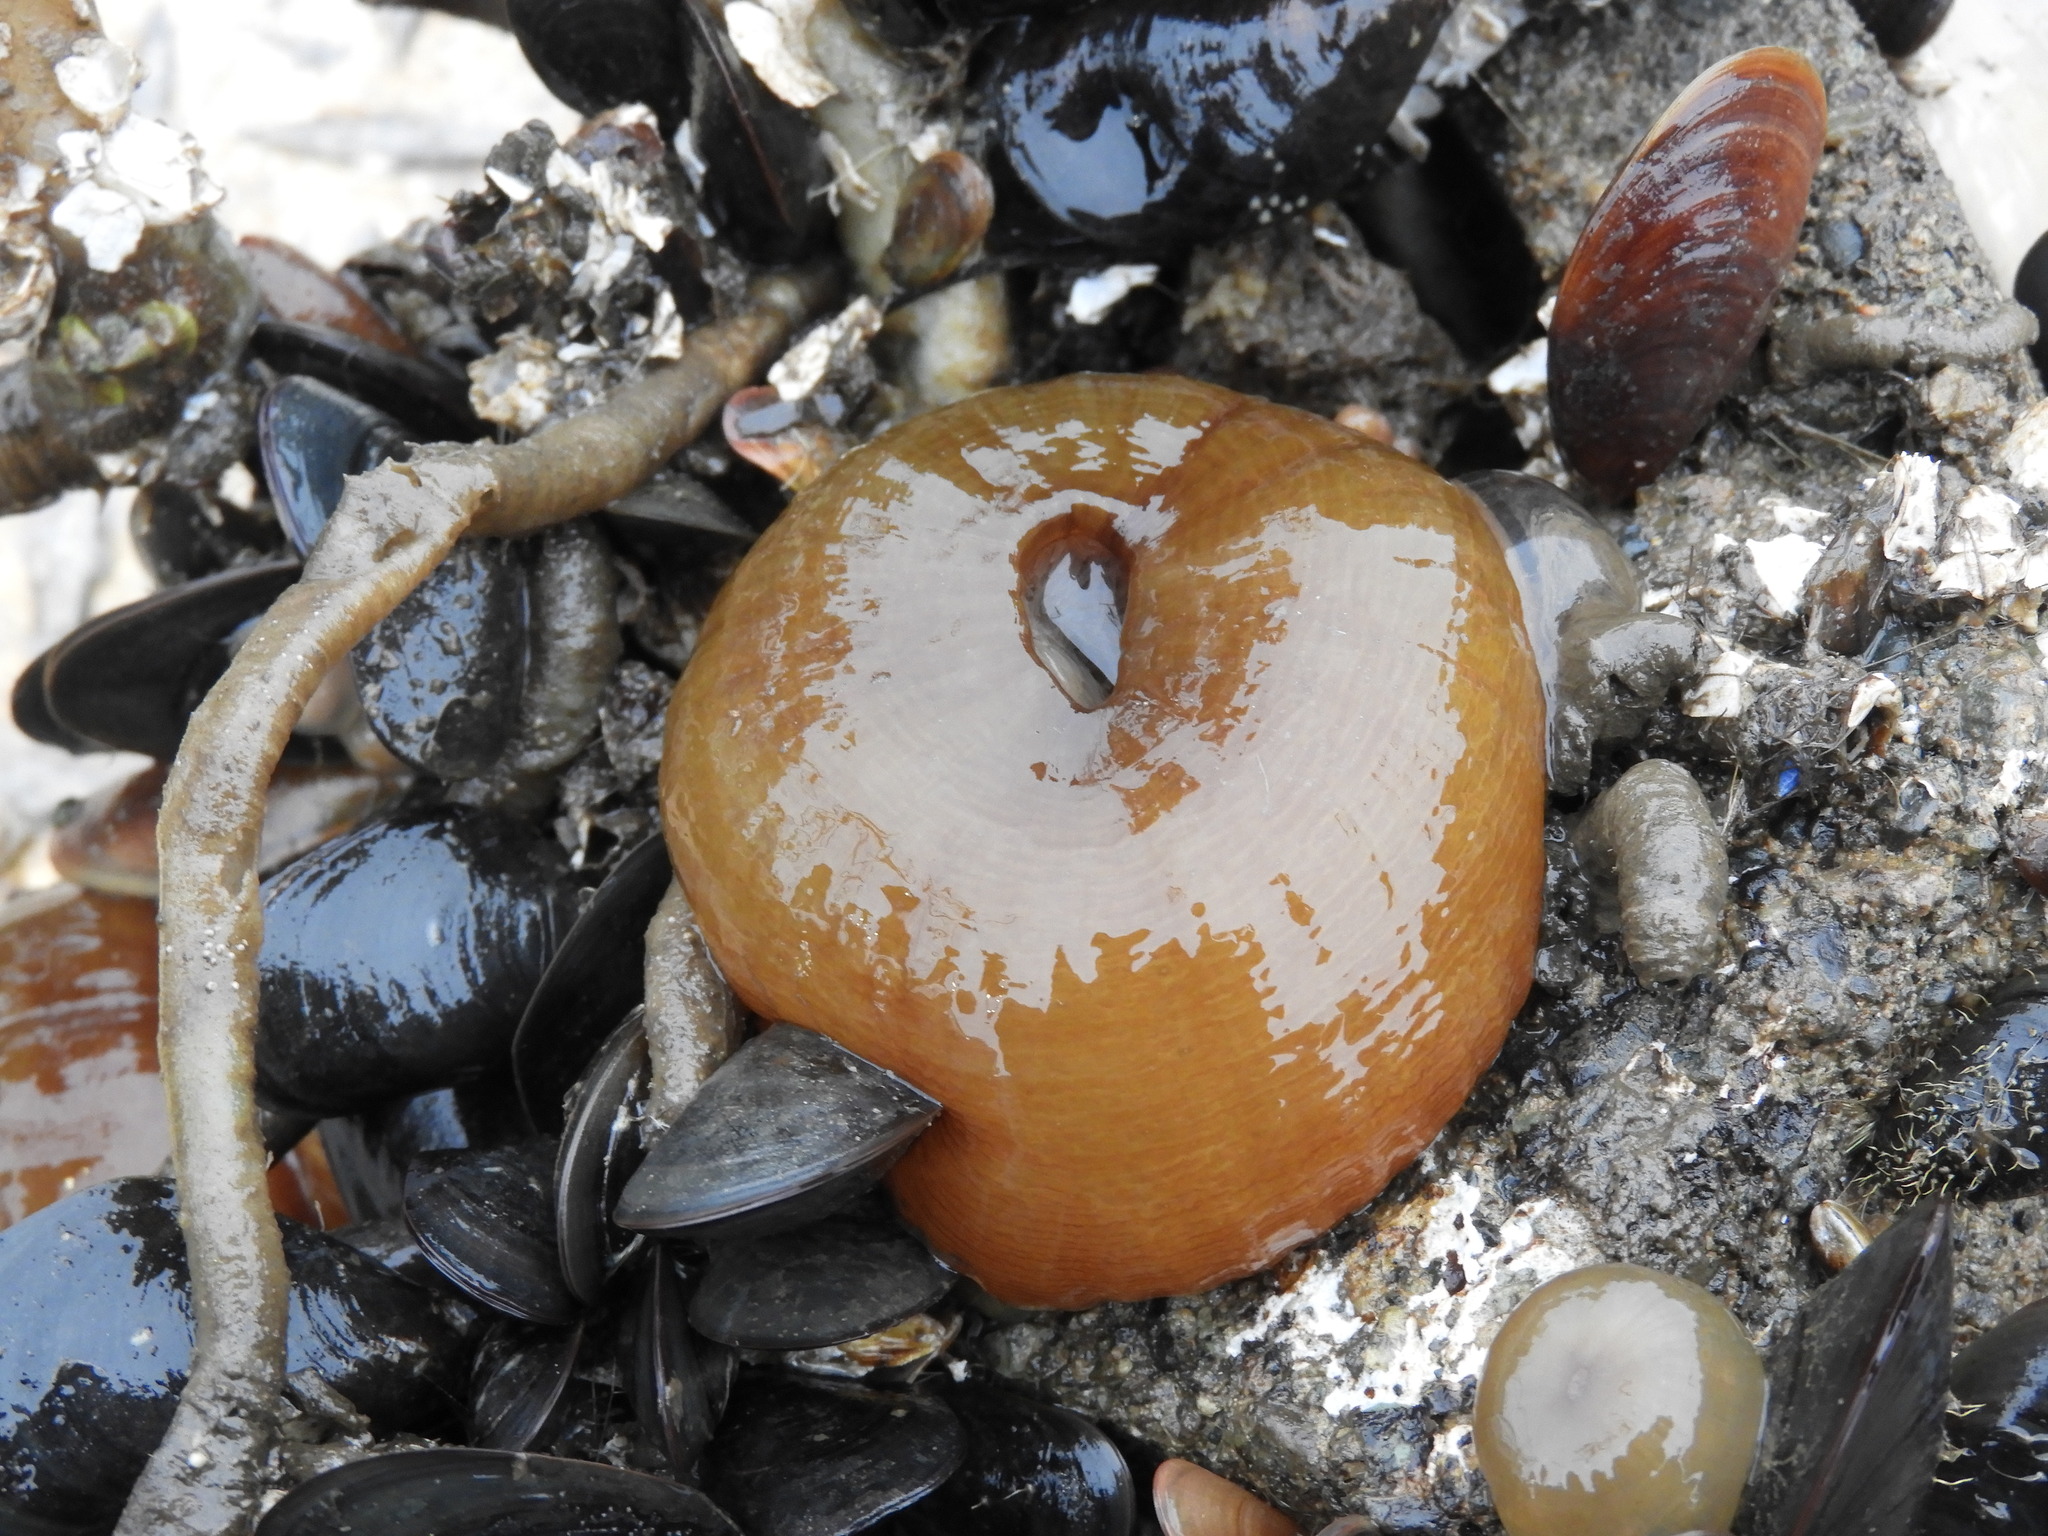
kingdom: Animalia
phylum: Cnidaria
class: Anthozoa
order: Actiniaria
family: Metridiidae
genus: Metridium
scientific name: Metridium senile
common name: Clonal plumose anemone
